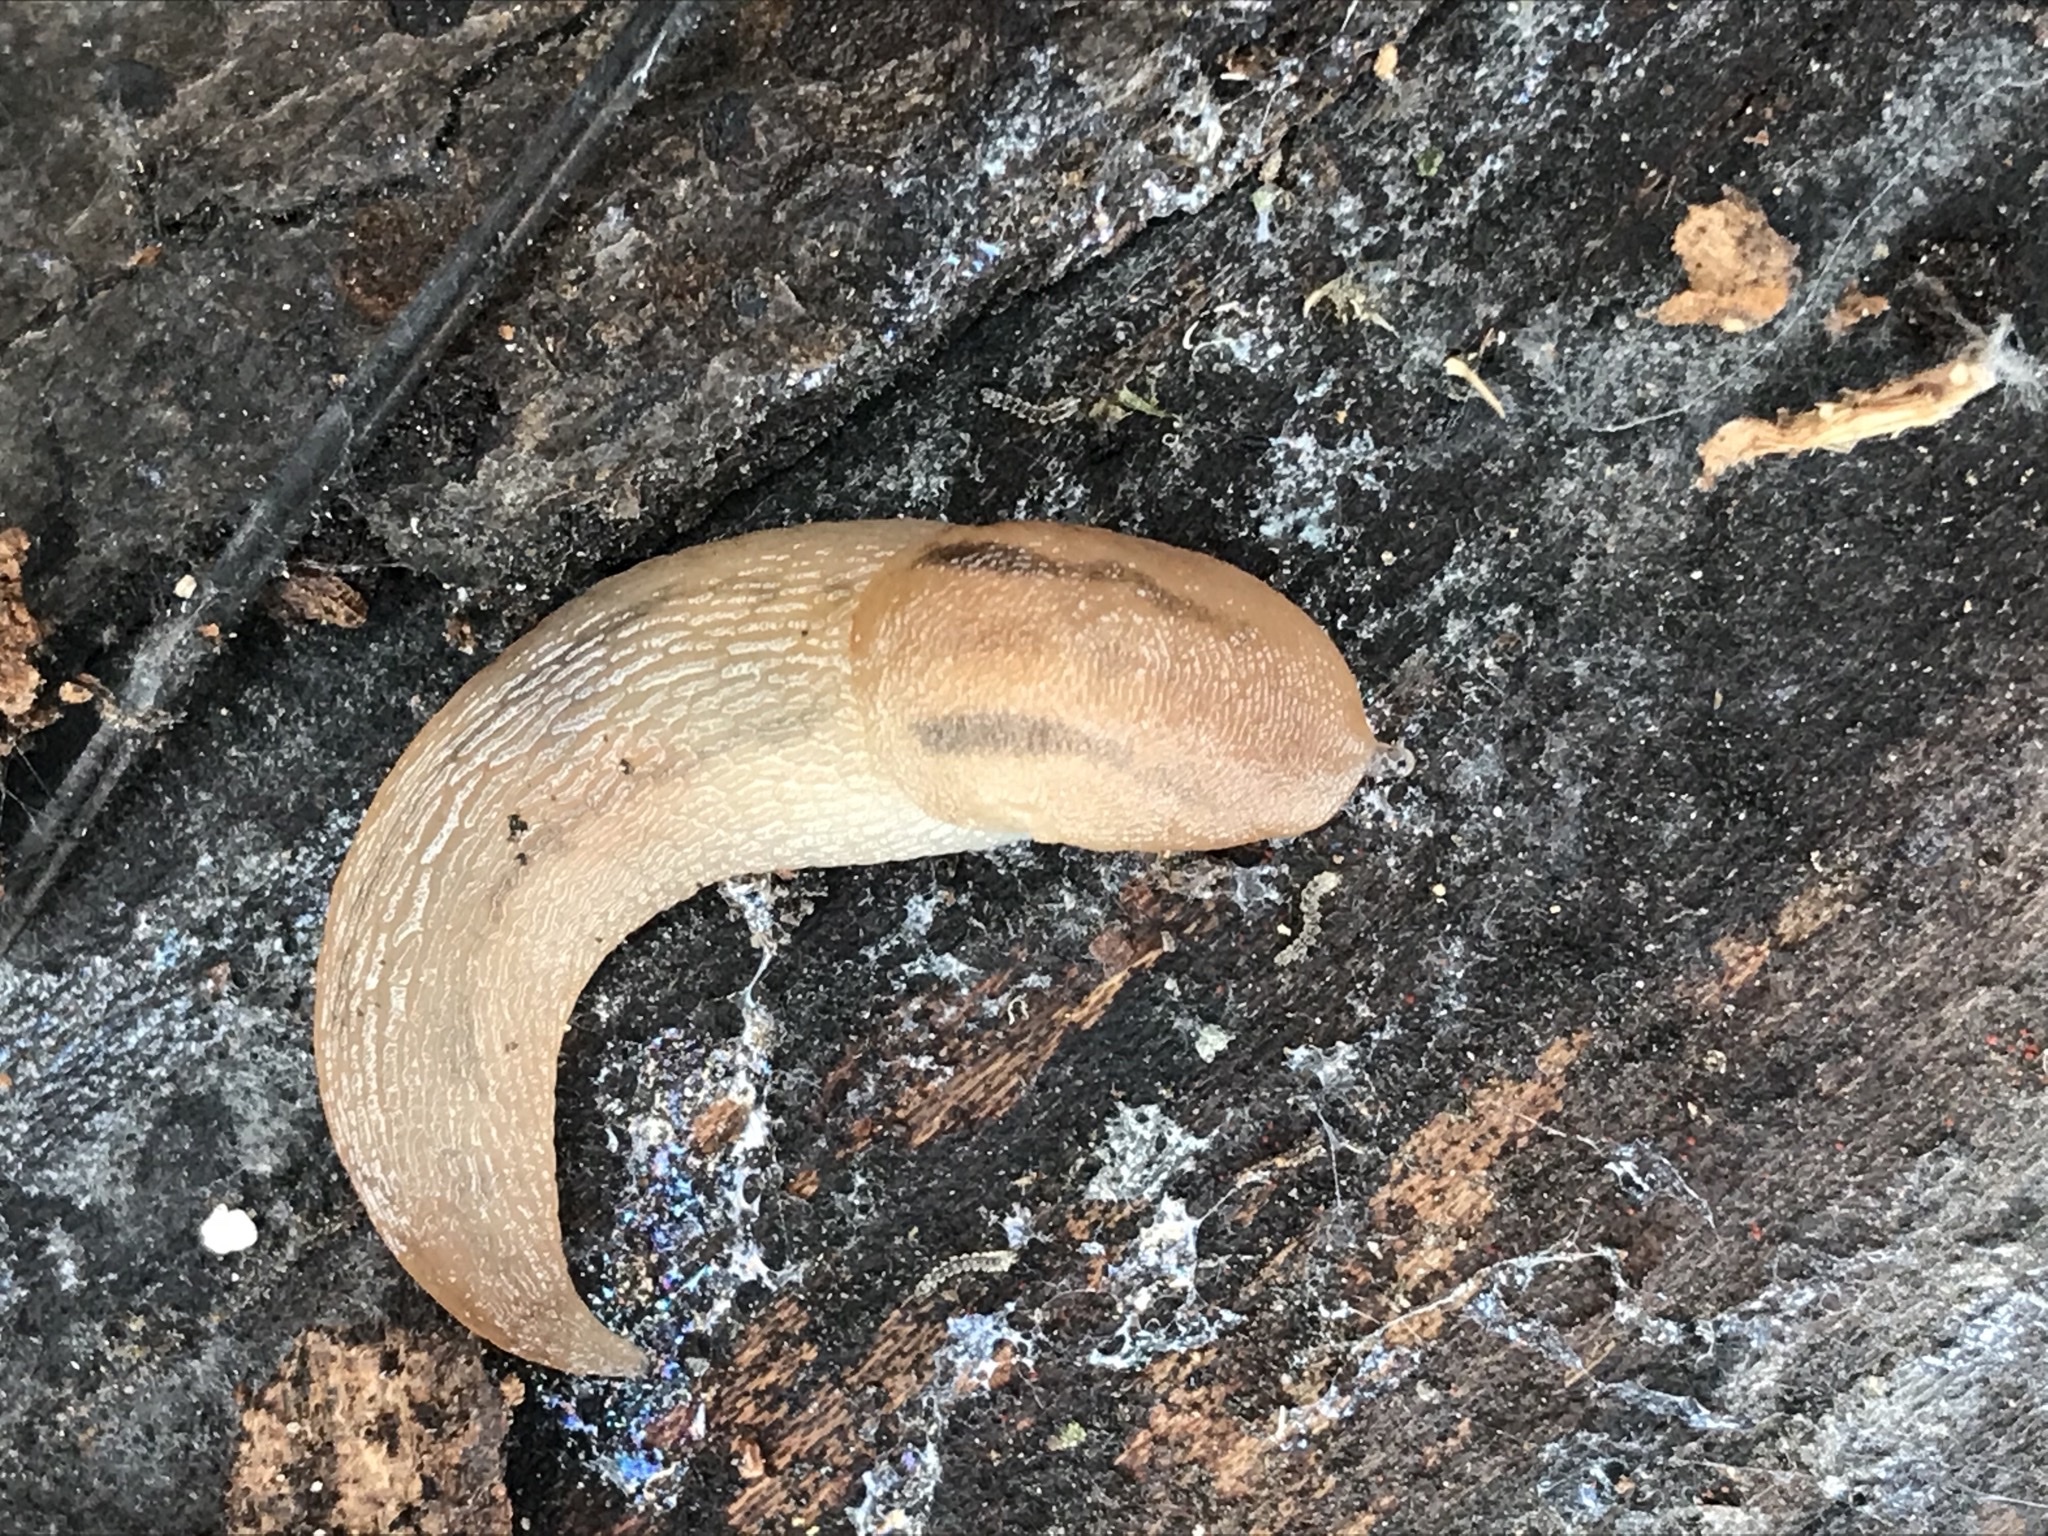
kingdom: Animalia
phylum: Mollusca
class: Gastropoda
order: Stylommatophora
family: Limacidae
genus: Ambigolimax
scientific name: Ambigolimax
